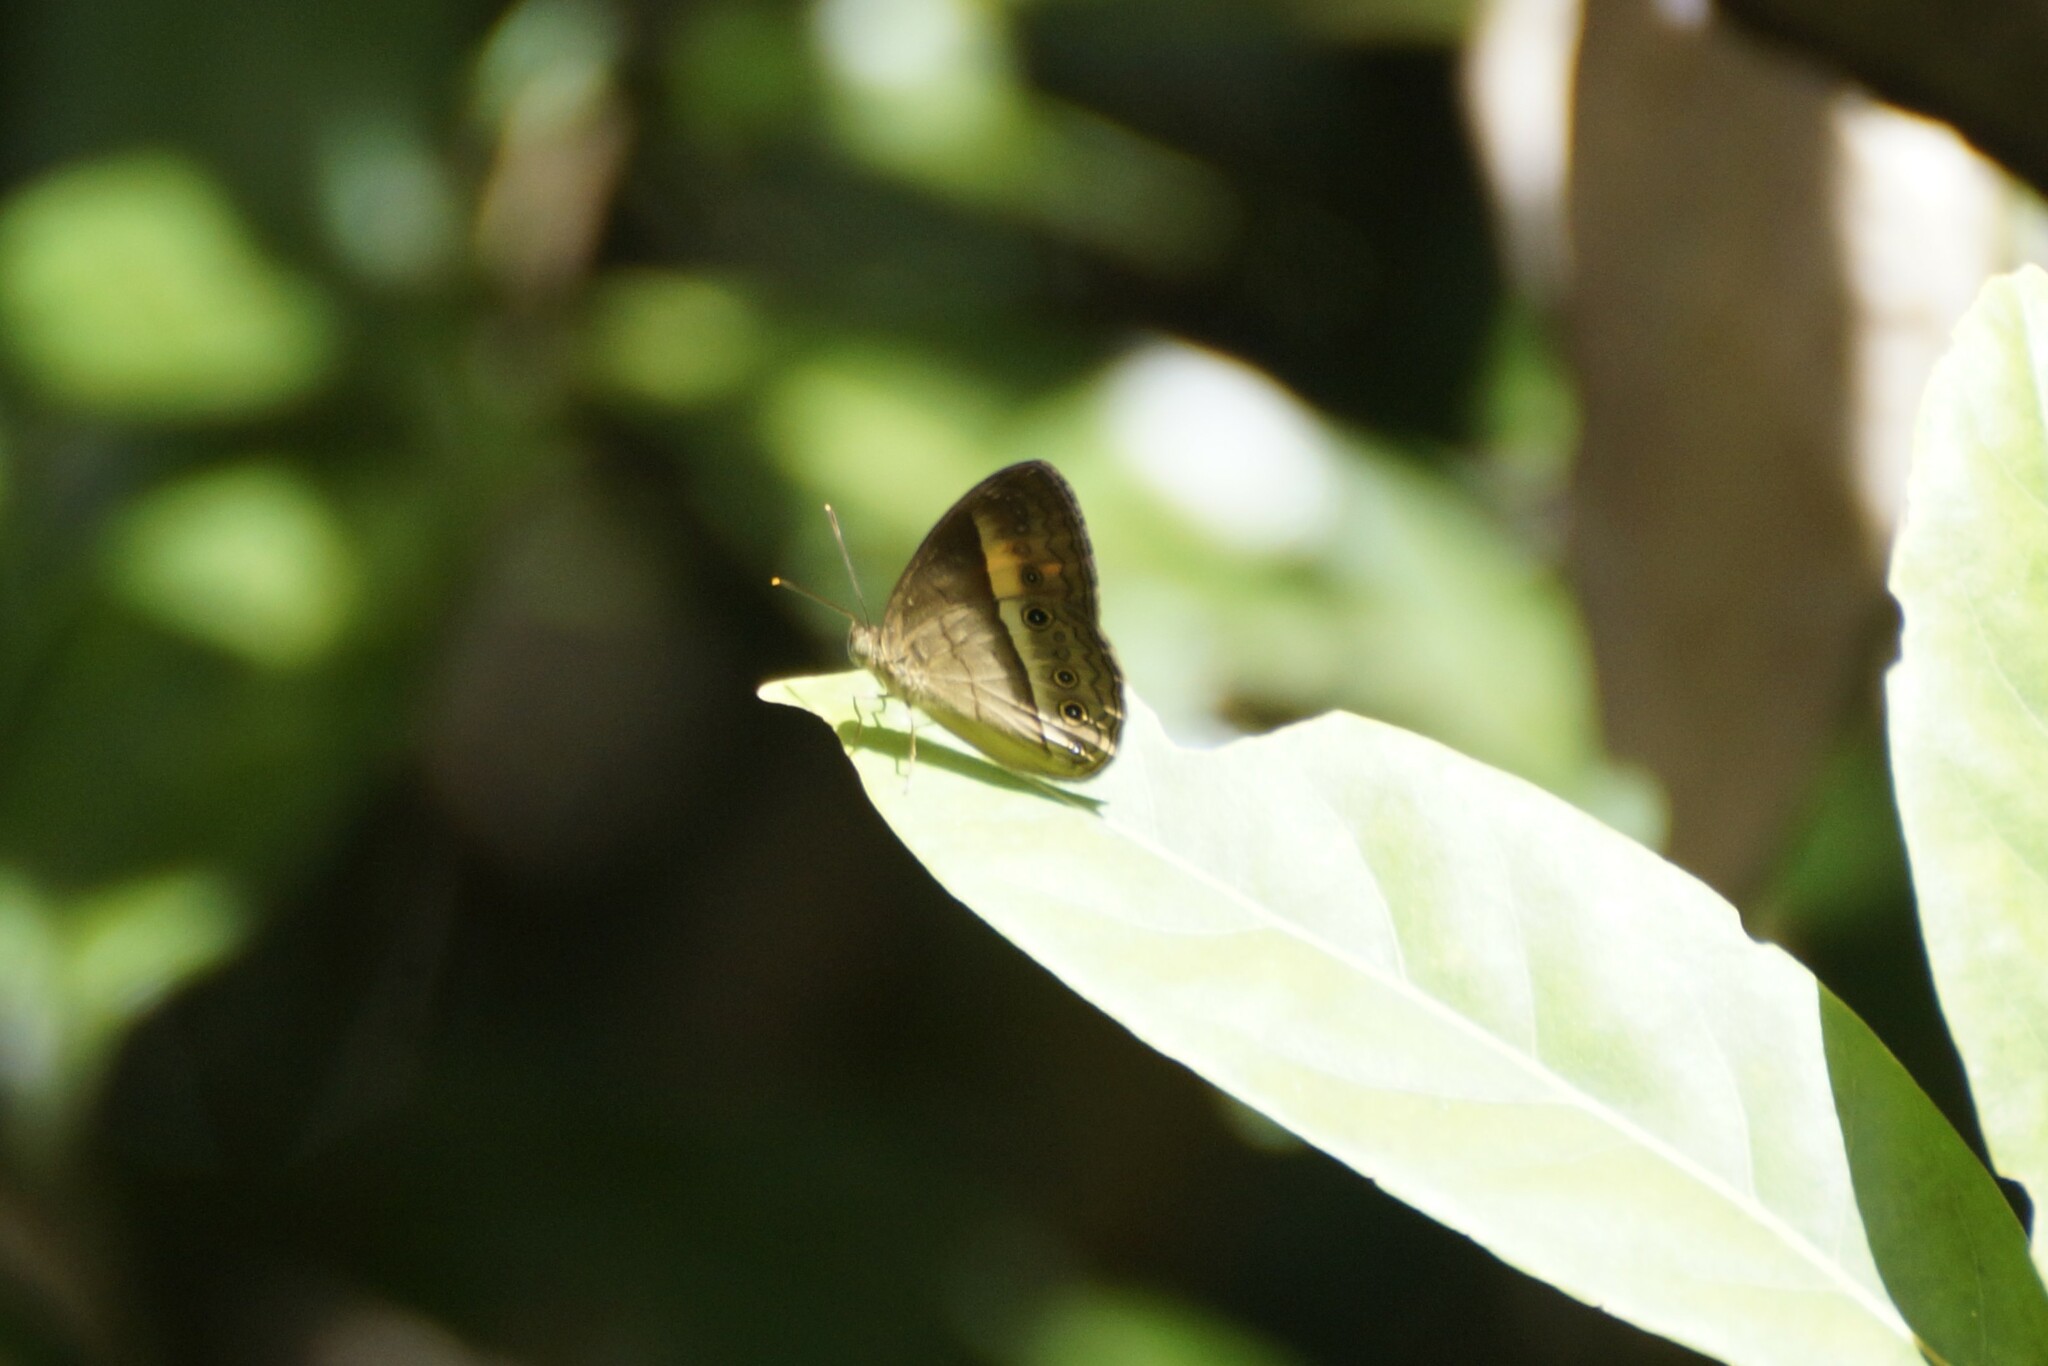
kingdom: Animalia
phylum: Arthropoda
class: Insecta
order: Lepidoptera
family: Nymphalidae
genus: Mycalesis
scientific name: Mycalesis terminus
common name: Orange bushbrown
